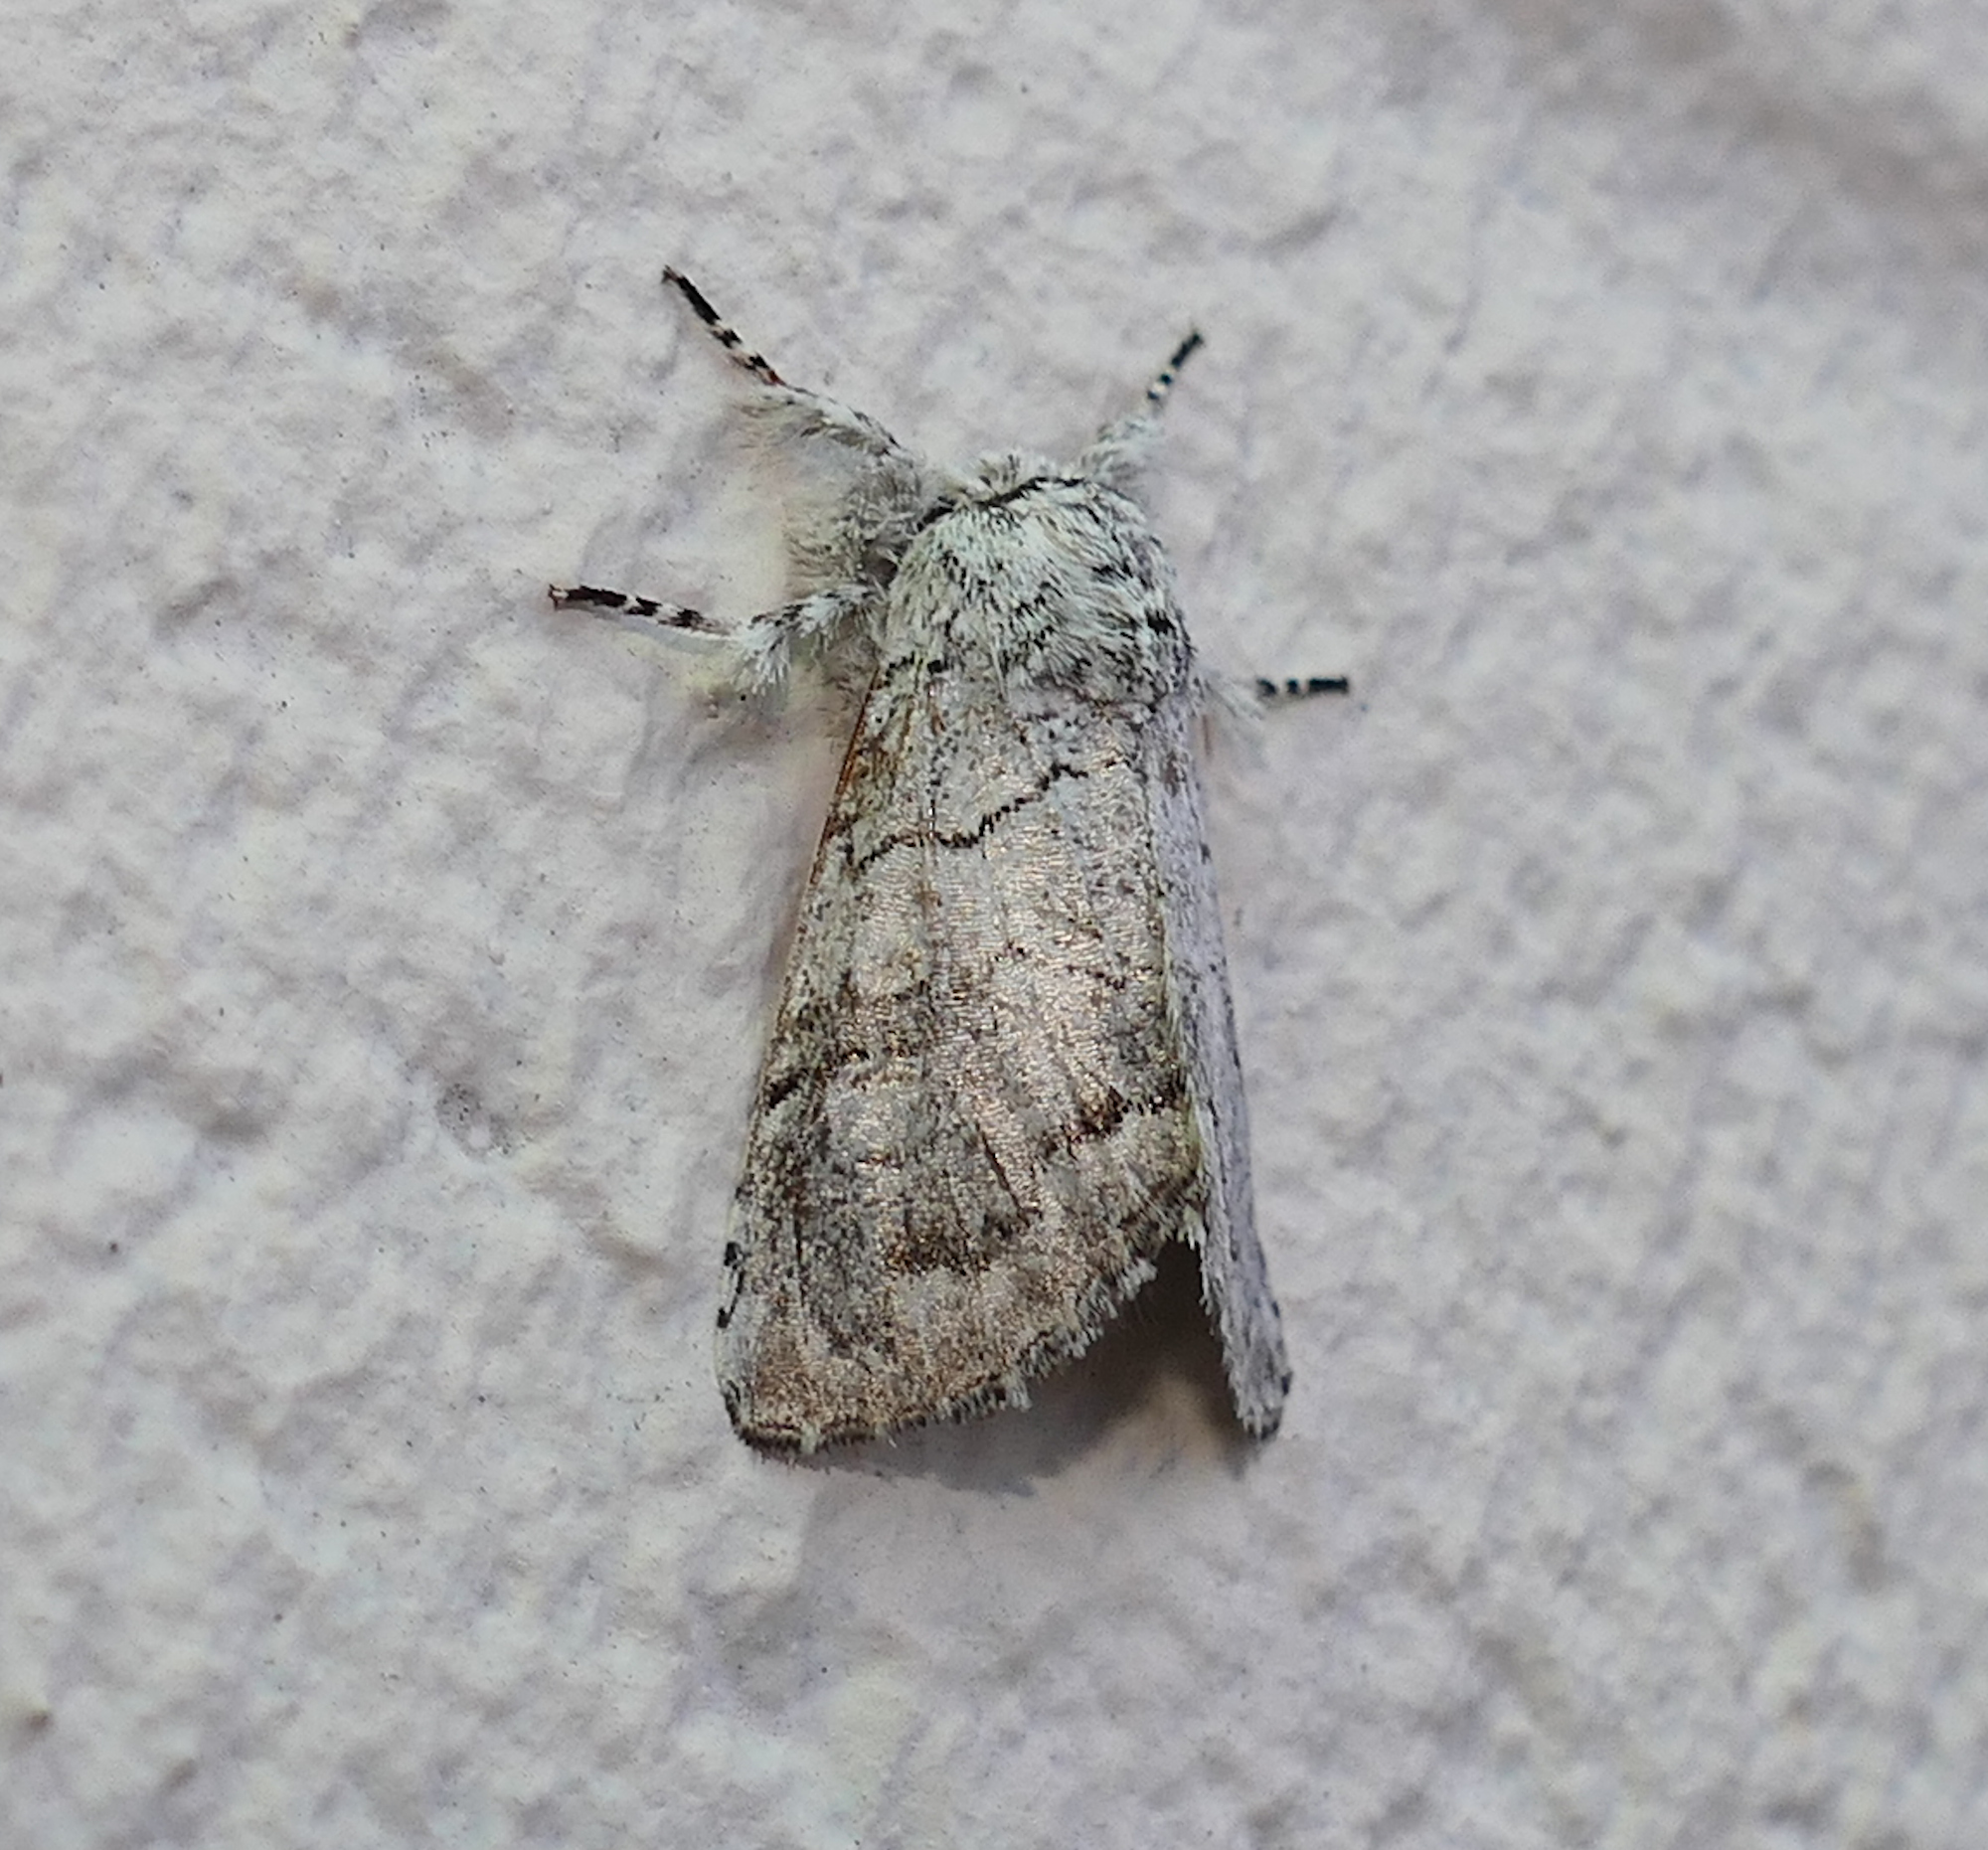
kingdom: Animalia
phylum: Arthropoda
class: Insecta
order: Lepidoptera
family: Noctuidae
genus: Charadra
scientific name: Charadra dispulsa
